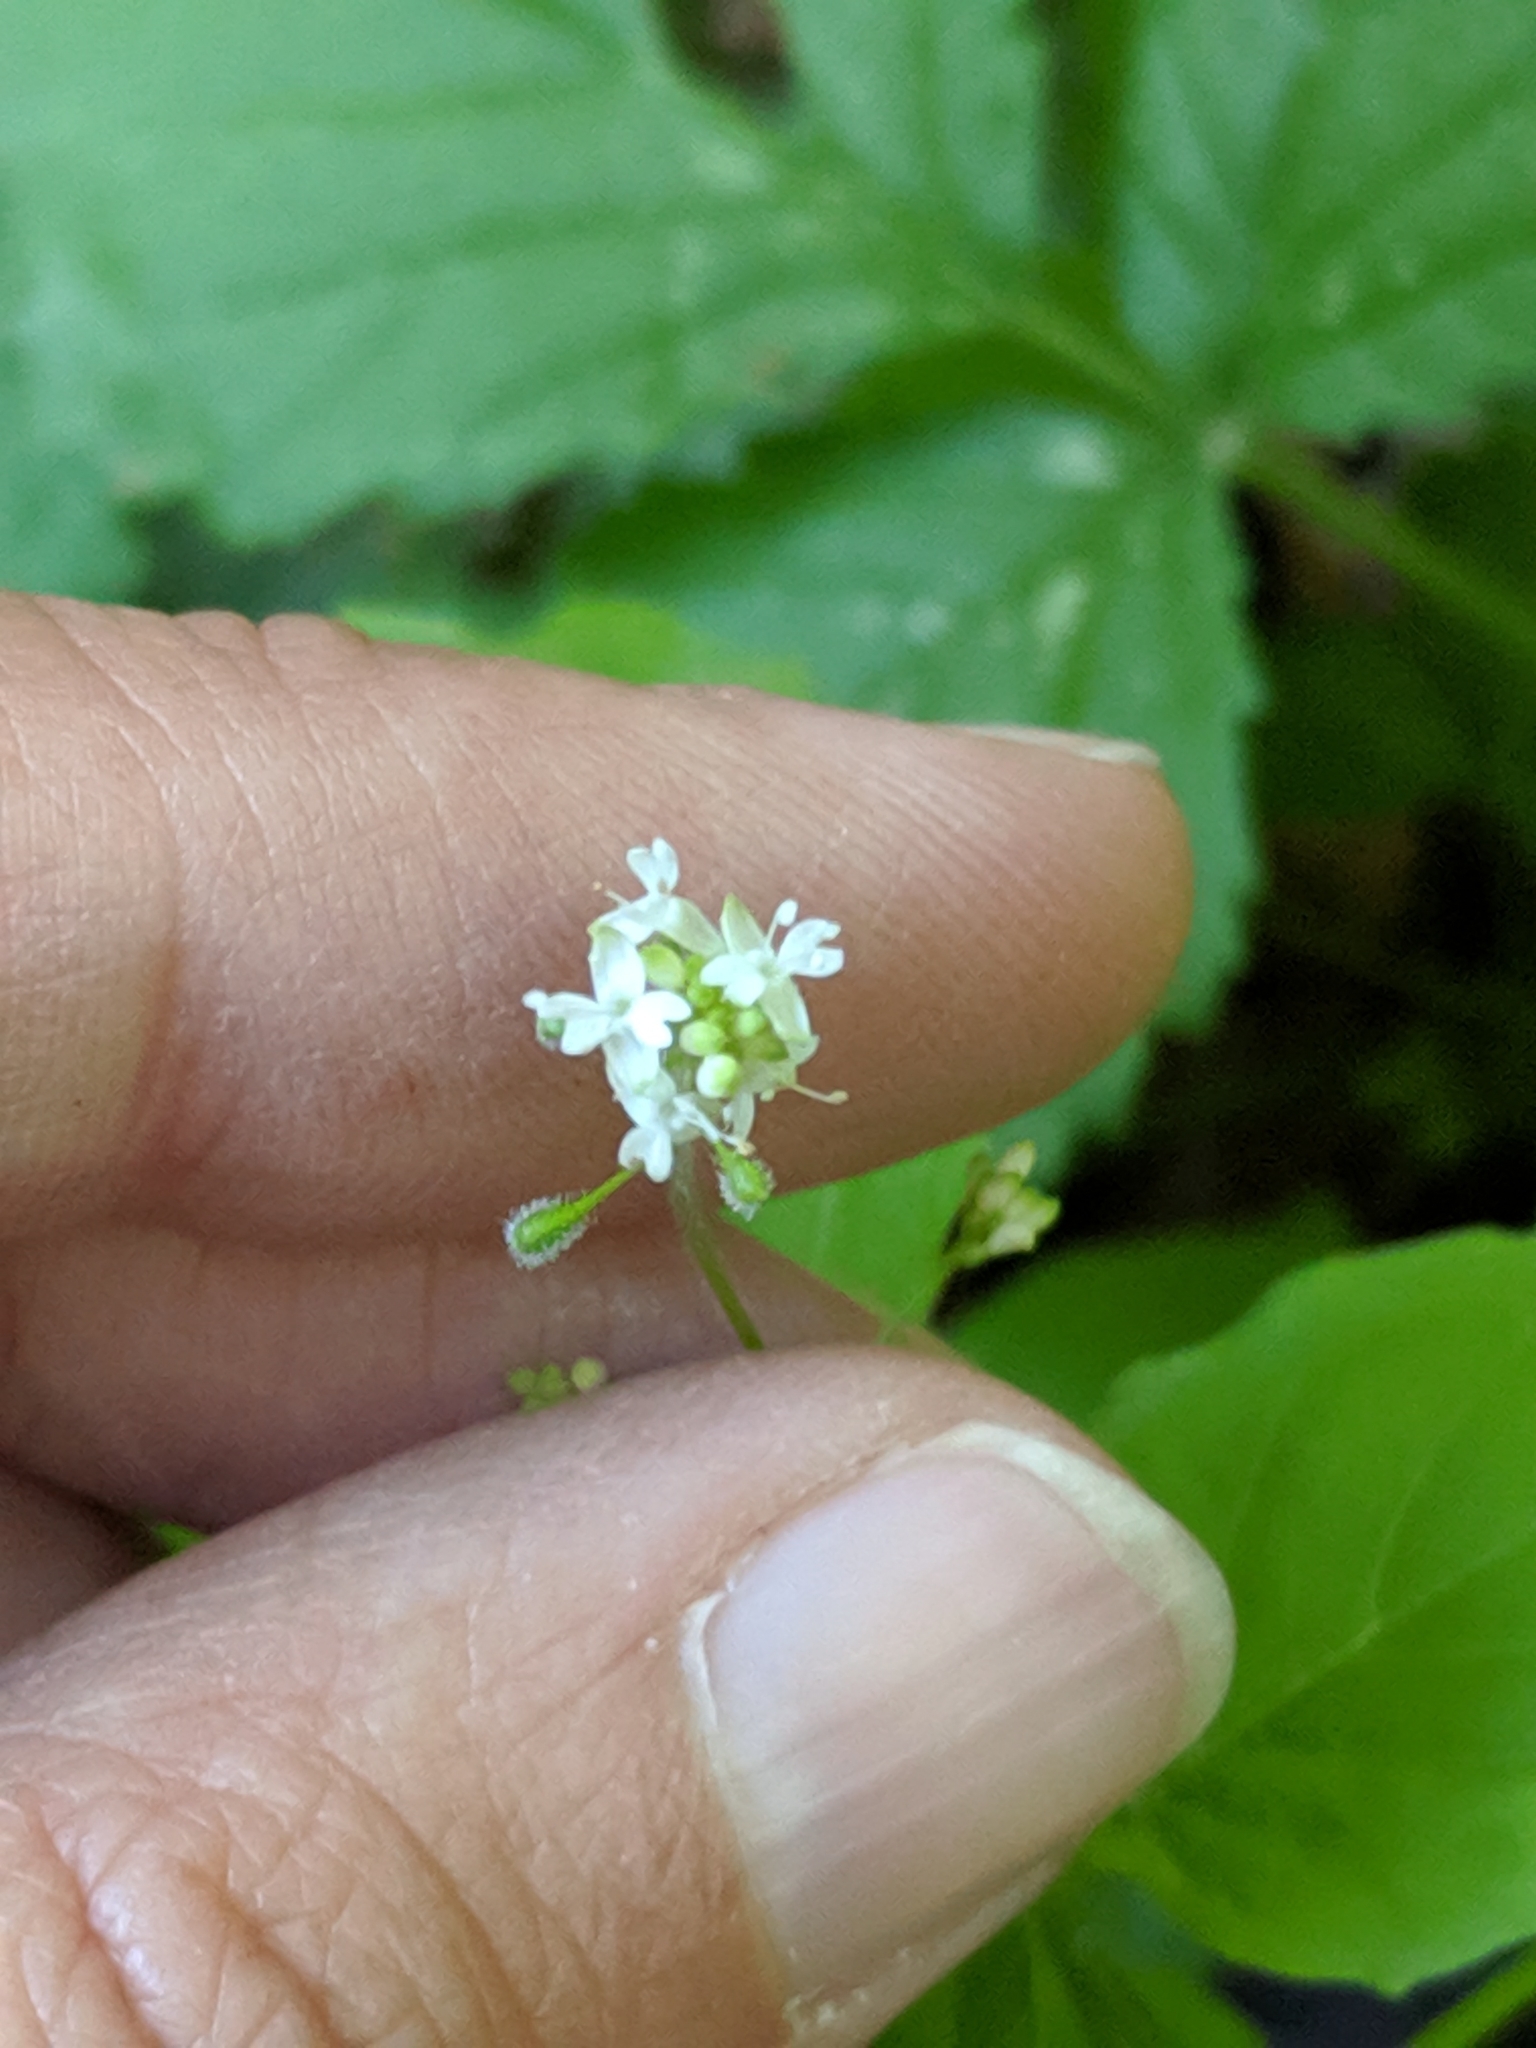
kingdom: Plantae
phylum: Tracheophyta
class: Magnoliopsida
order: Myrtales
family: Onagraceae
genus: Circaea
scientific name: Circaea alpina
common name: Alpine enchanter's-nightshade
